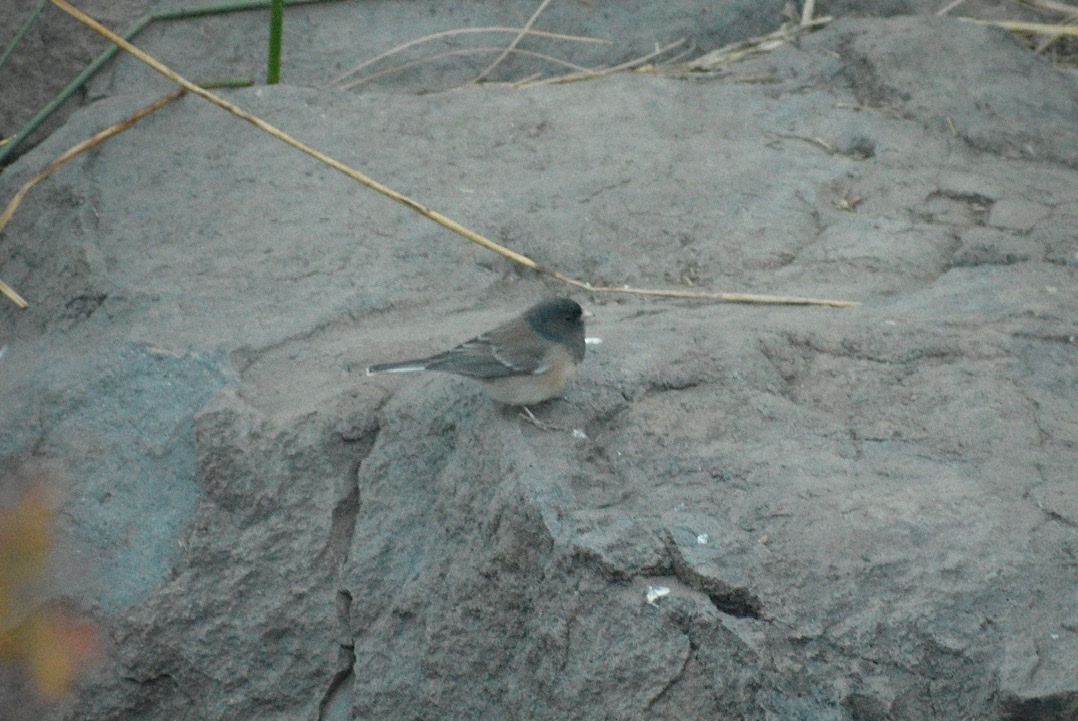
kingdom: Animalia
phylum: Chordata
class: Aves
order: Passeriformes
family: Passerellidae
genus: Junco
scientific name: Junco hyemalis
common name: Dark-eyed junco
